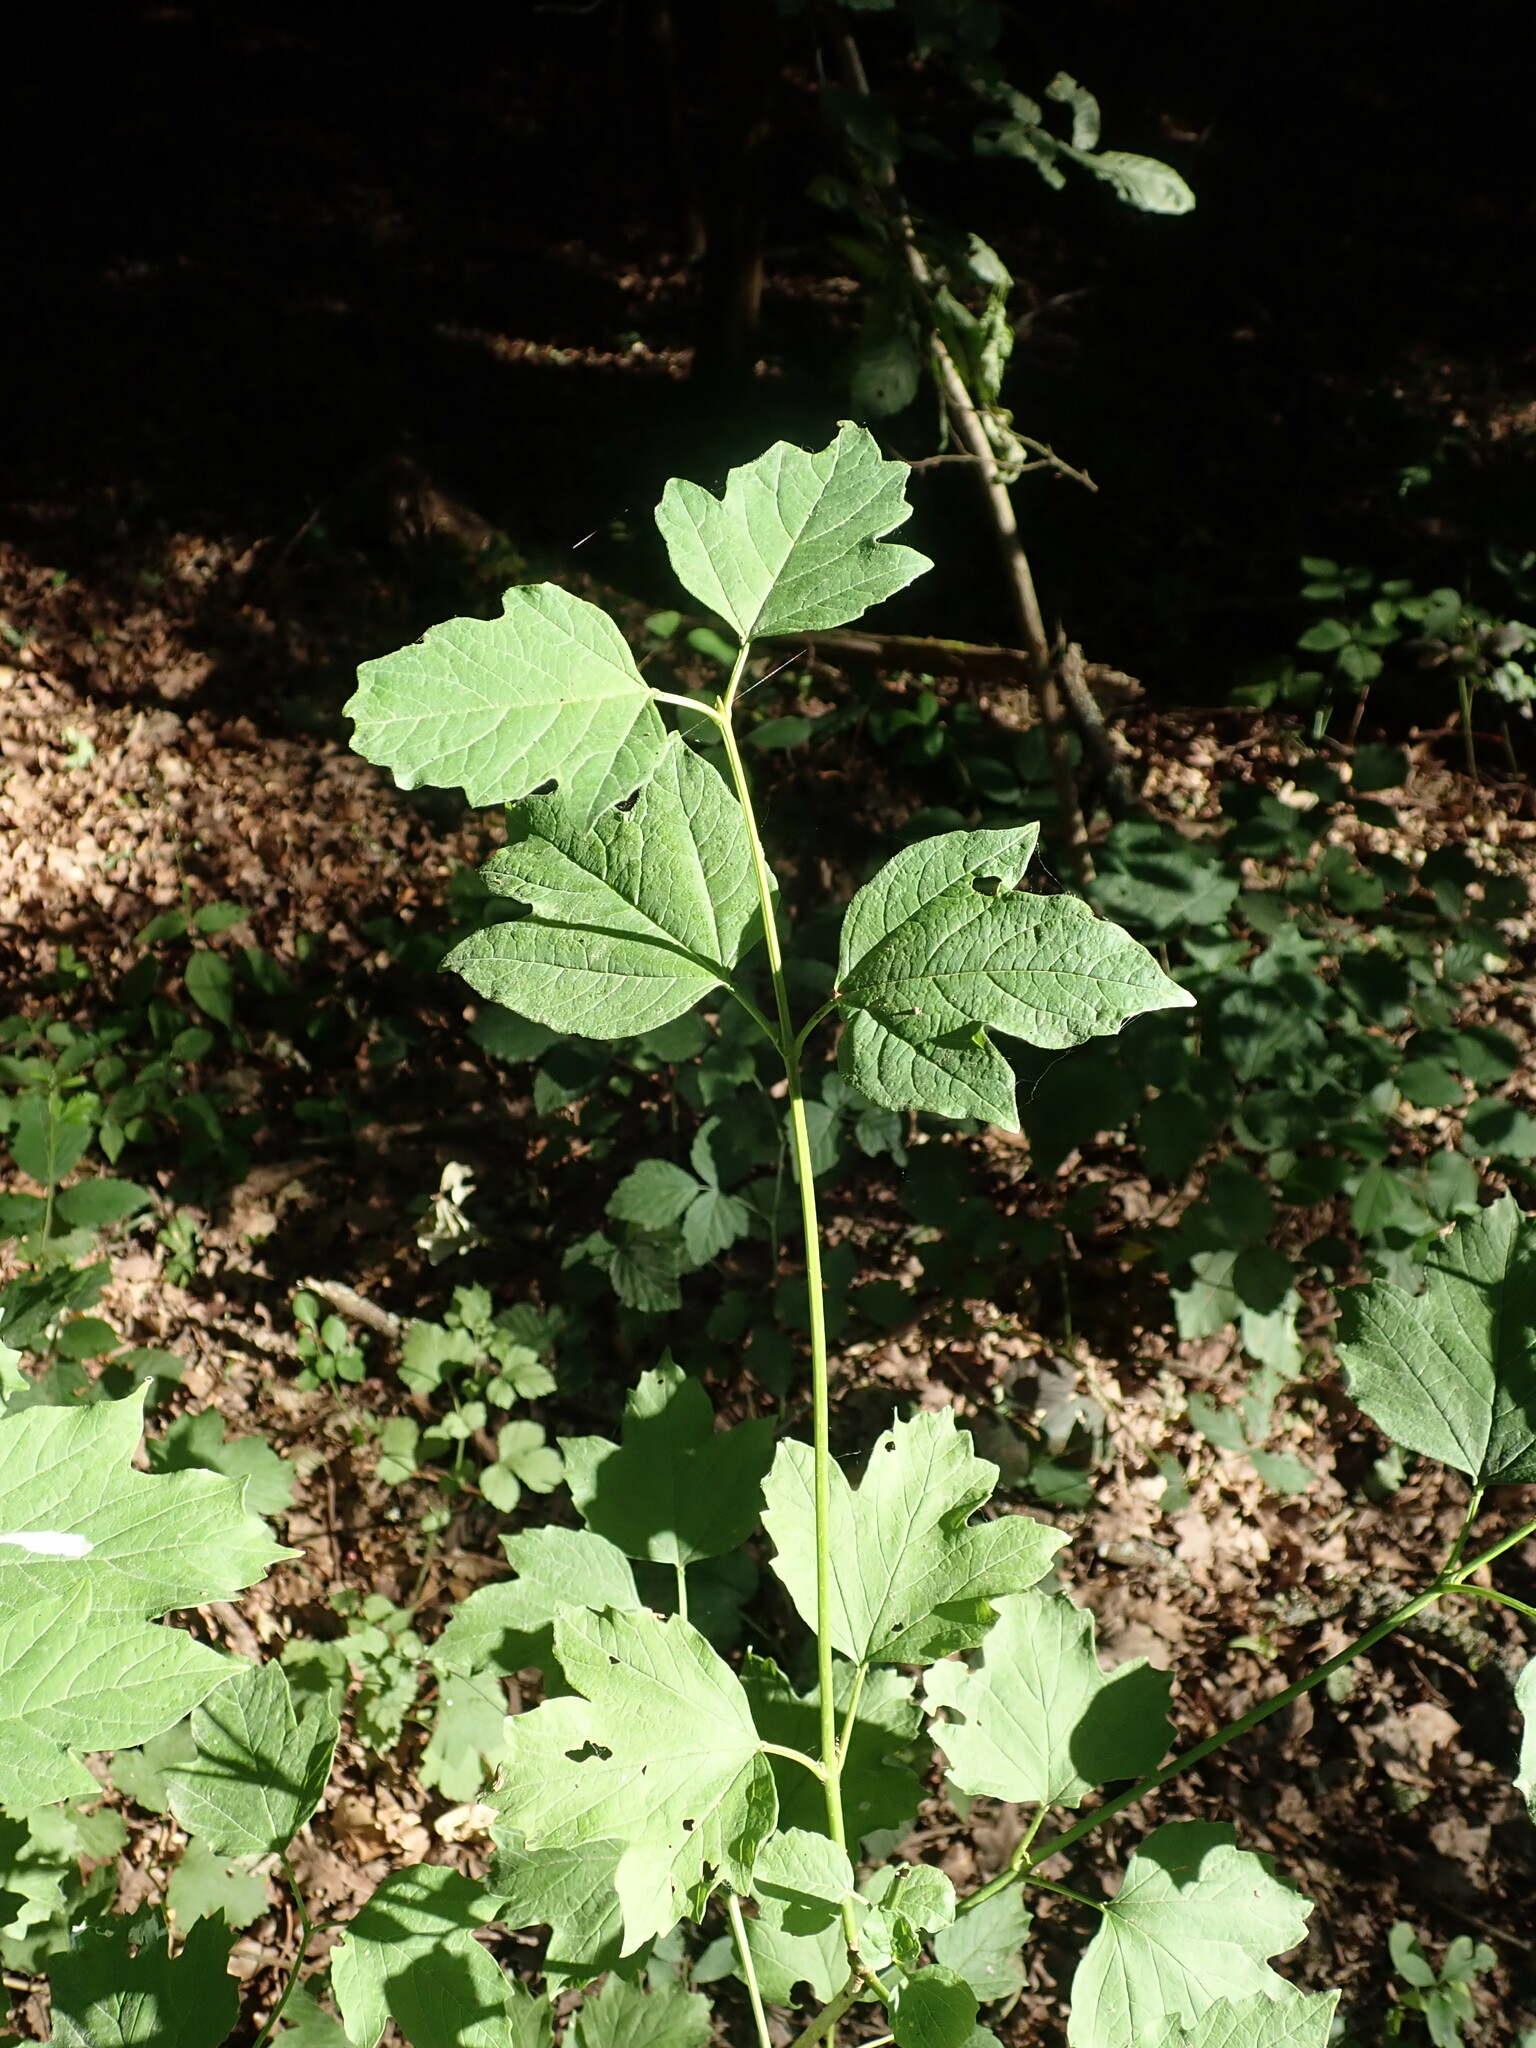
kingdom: Plantae
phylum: Tracheophyta
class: Magnoliopsida
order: Dipsacales
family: Viburnaceae
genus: Viburnum
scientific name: Viburnum opulus
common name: Guelder-rose
